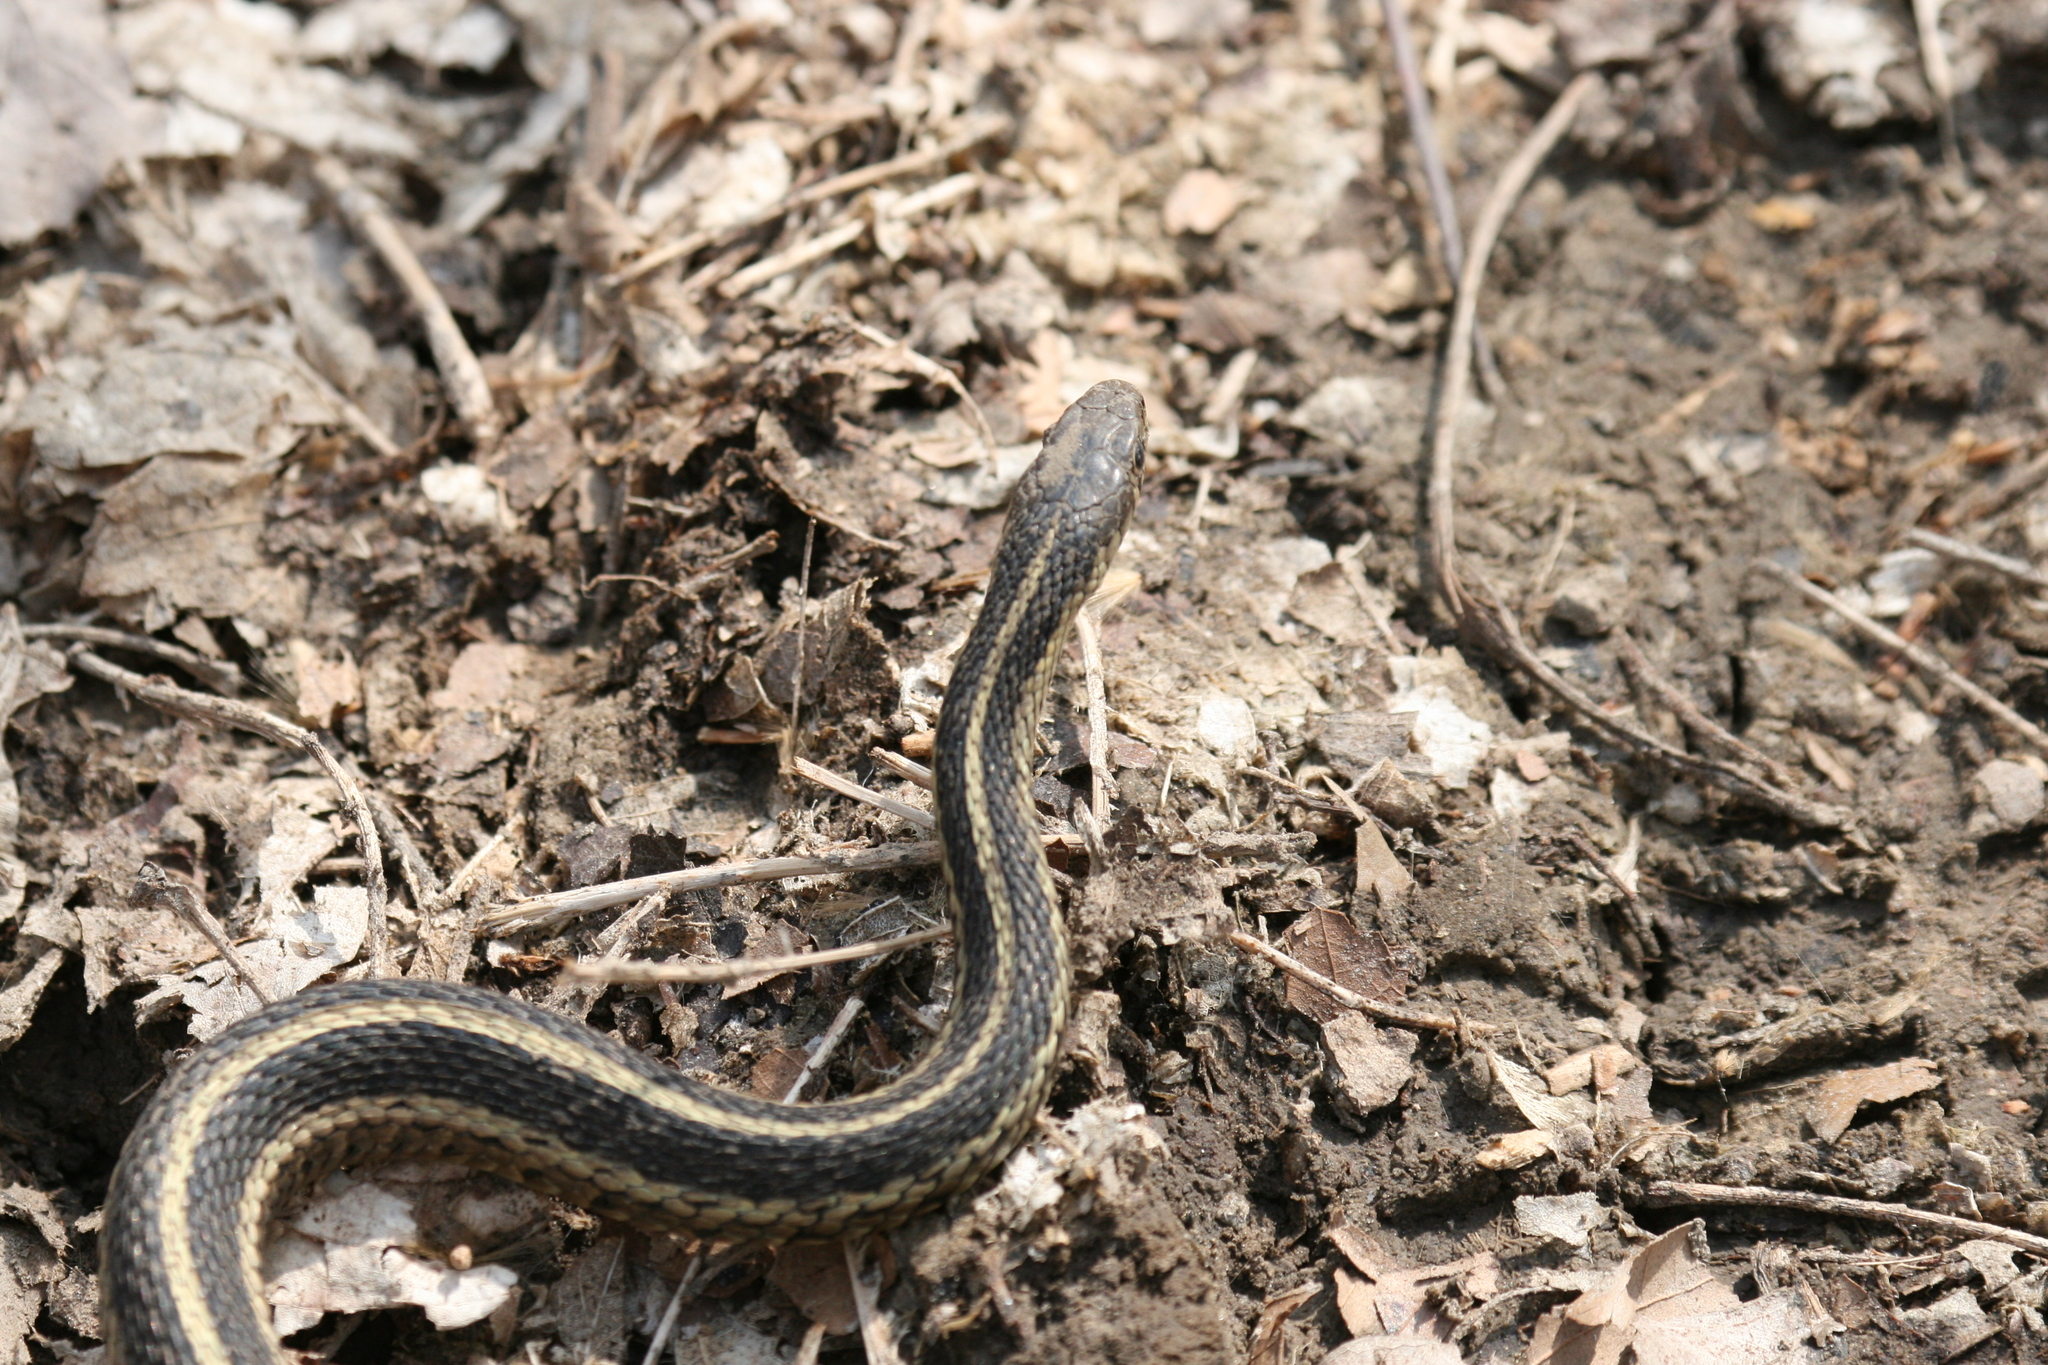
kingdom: Animalia
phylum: Chordata
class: Squamata
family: Colubridae
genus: Thamnophis
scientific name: Thamnophis sirtalis
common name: Common garter snake
